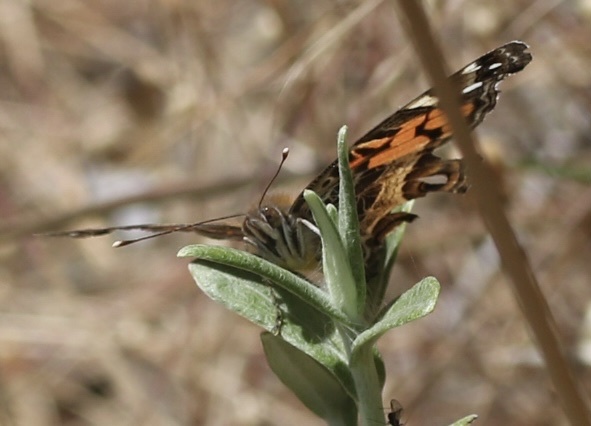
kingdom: Animalia
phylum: Arthropoda
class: Insecta
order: Lepidoptera
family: Nymphalidae
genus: Vanessa
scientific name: Vanessa virginiensis
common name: American lady
